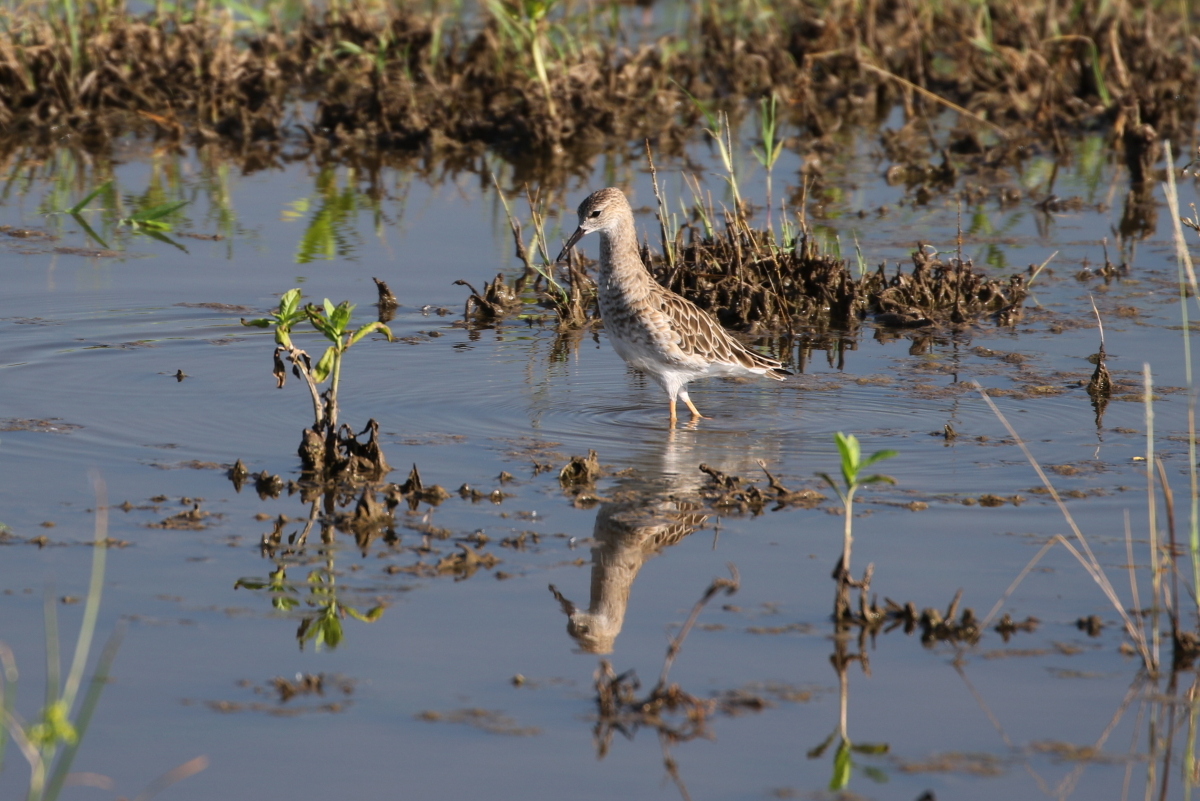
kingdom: Animalia
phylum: Chordata
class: Aves
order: Charadriiformes
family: Scolopacidae
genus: Calidris
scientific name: Calidris pugnax
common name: Ruff
